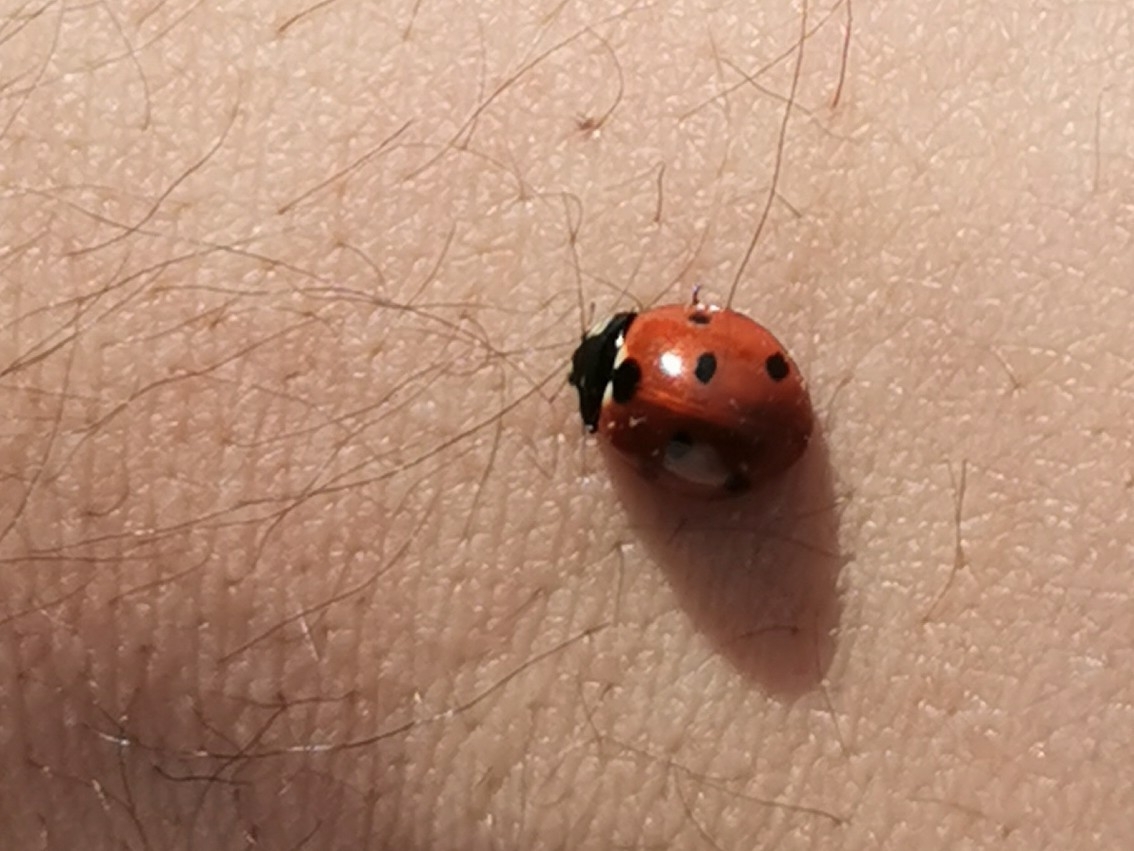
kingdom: Animalia
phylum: Arthropoda
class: Insecta
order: Coleoptera
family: Coccinellidae
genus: Coccinella
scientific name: Coccinella septempunctata
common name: Sevenspotted lady beetle
